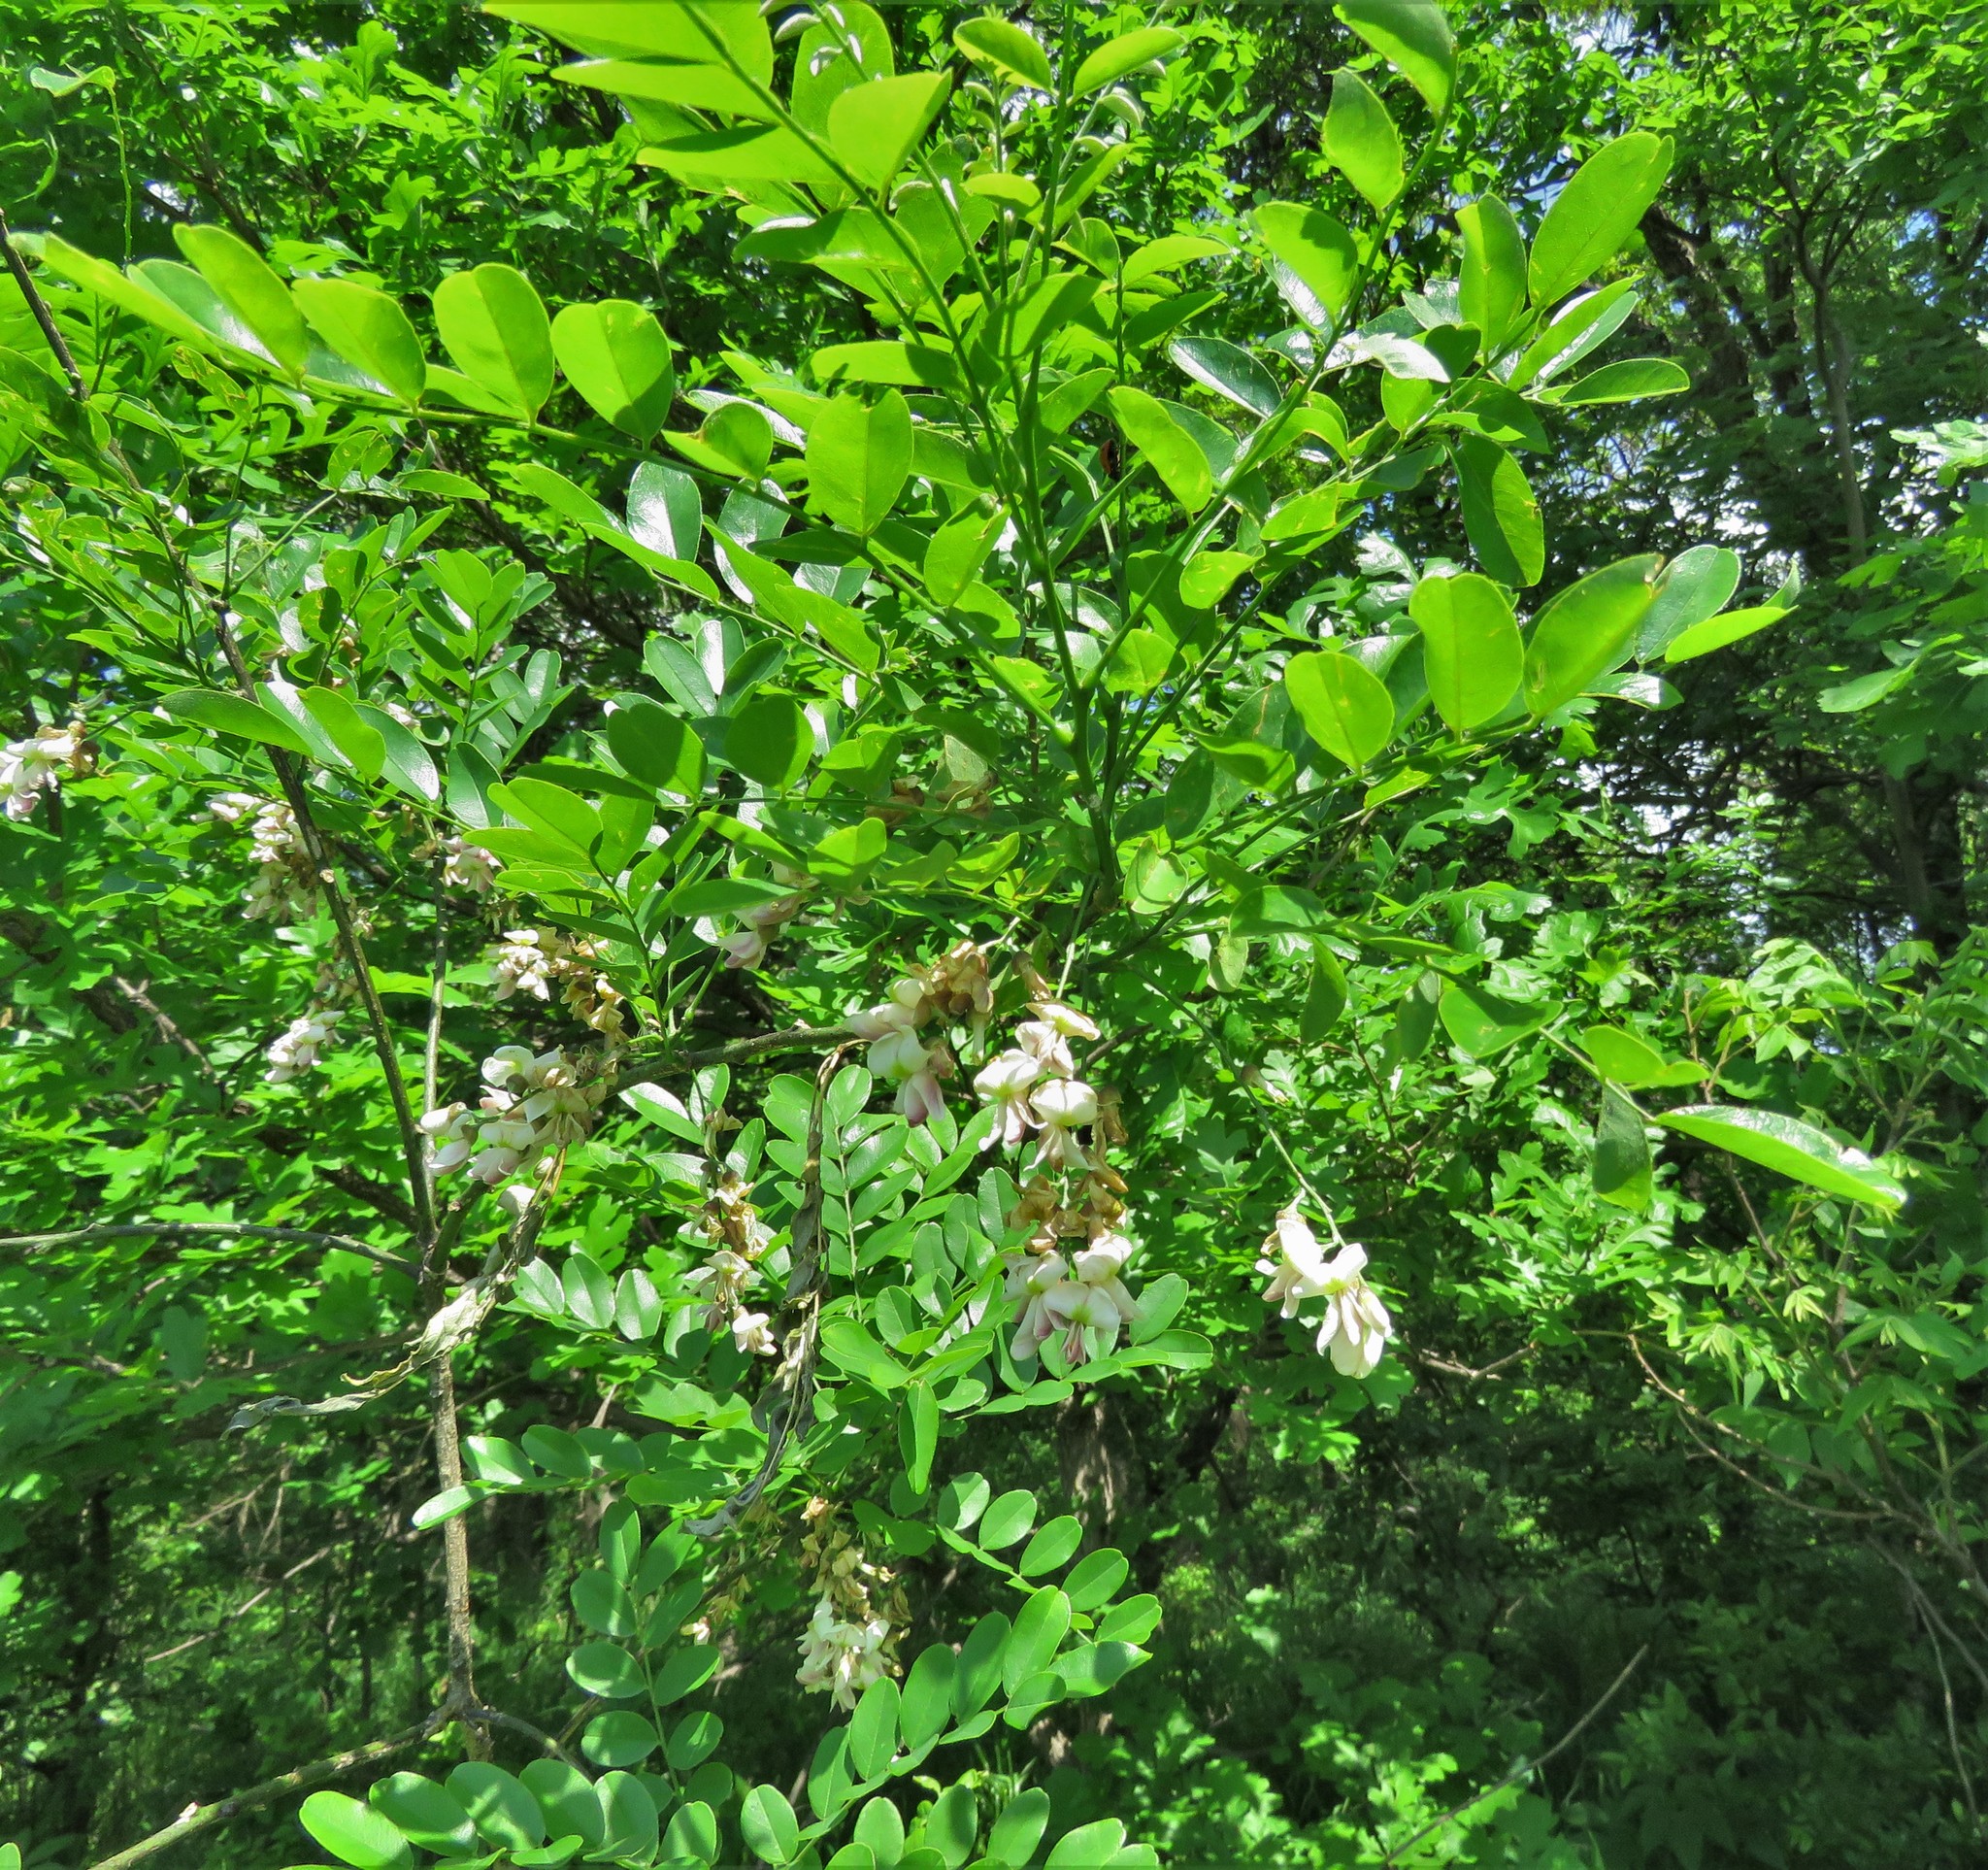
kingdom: Plantae
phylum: Tracheophyta
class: Magnoliopsida
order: Fabales
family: Fabaceae
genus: Styphnolobium
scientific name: Styphnolobium affine
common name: Texas sophora
